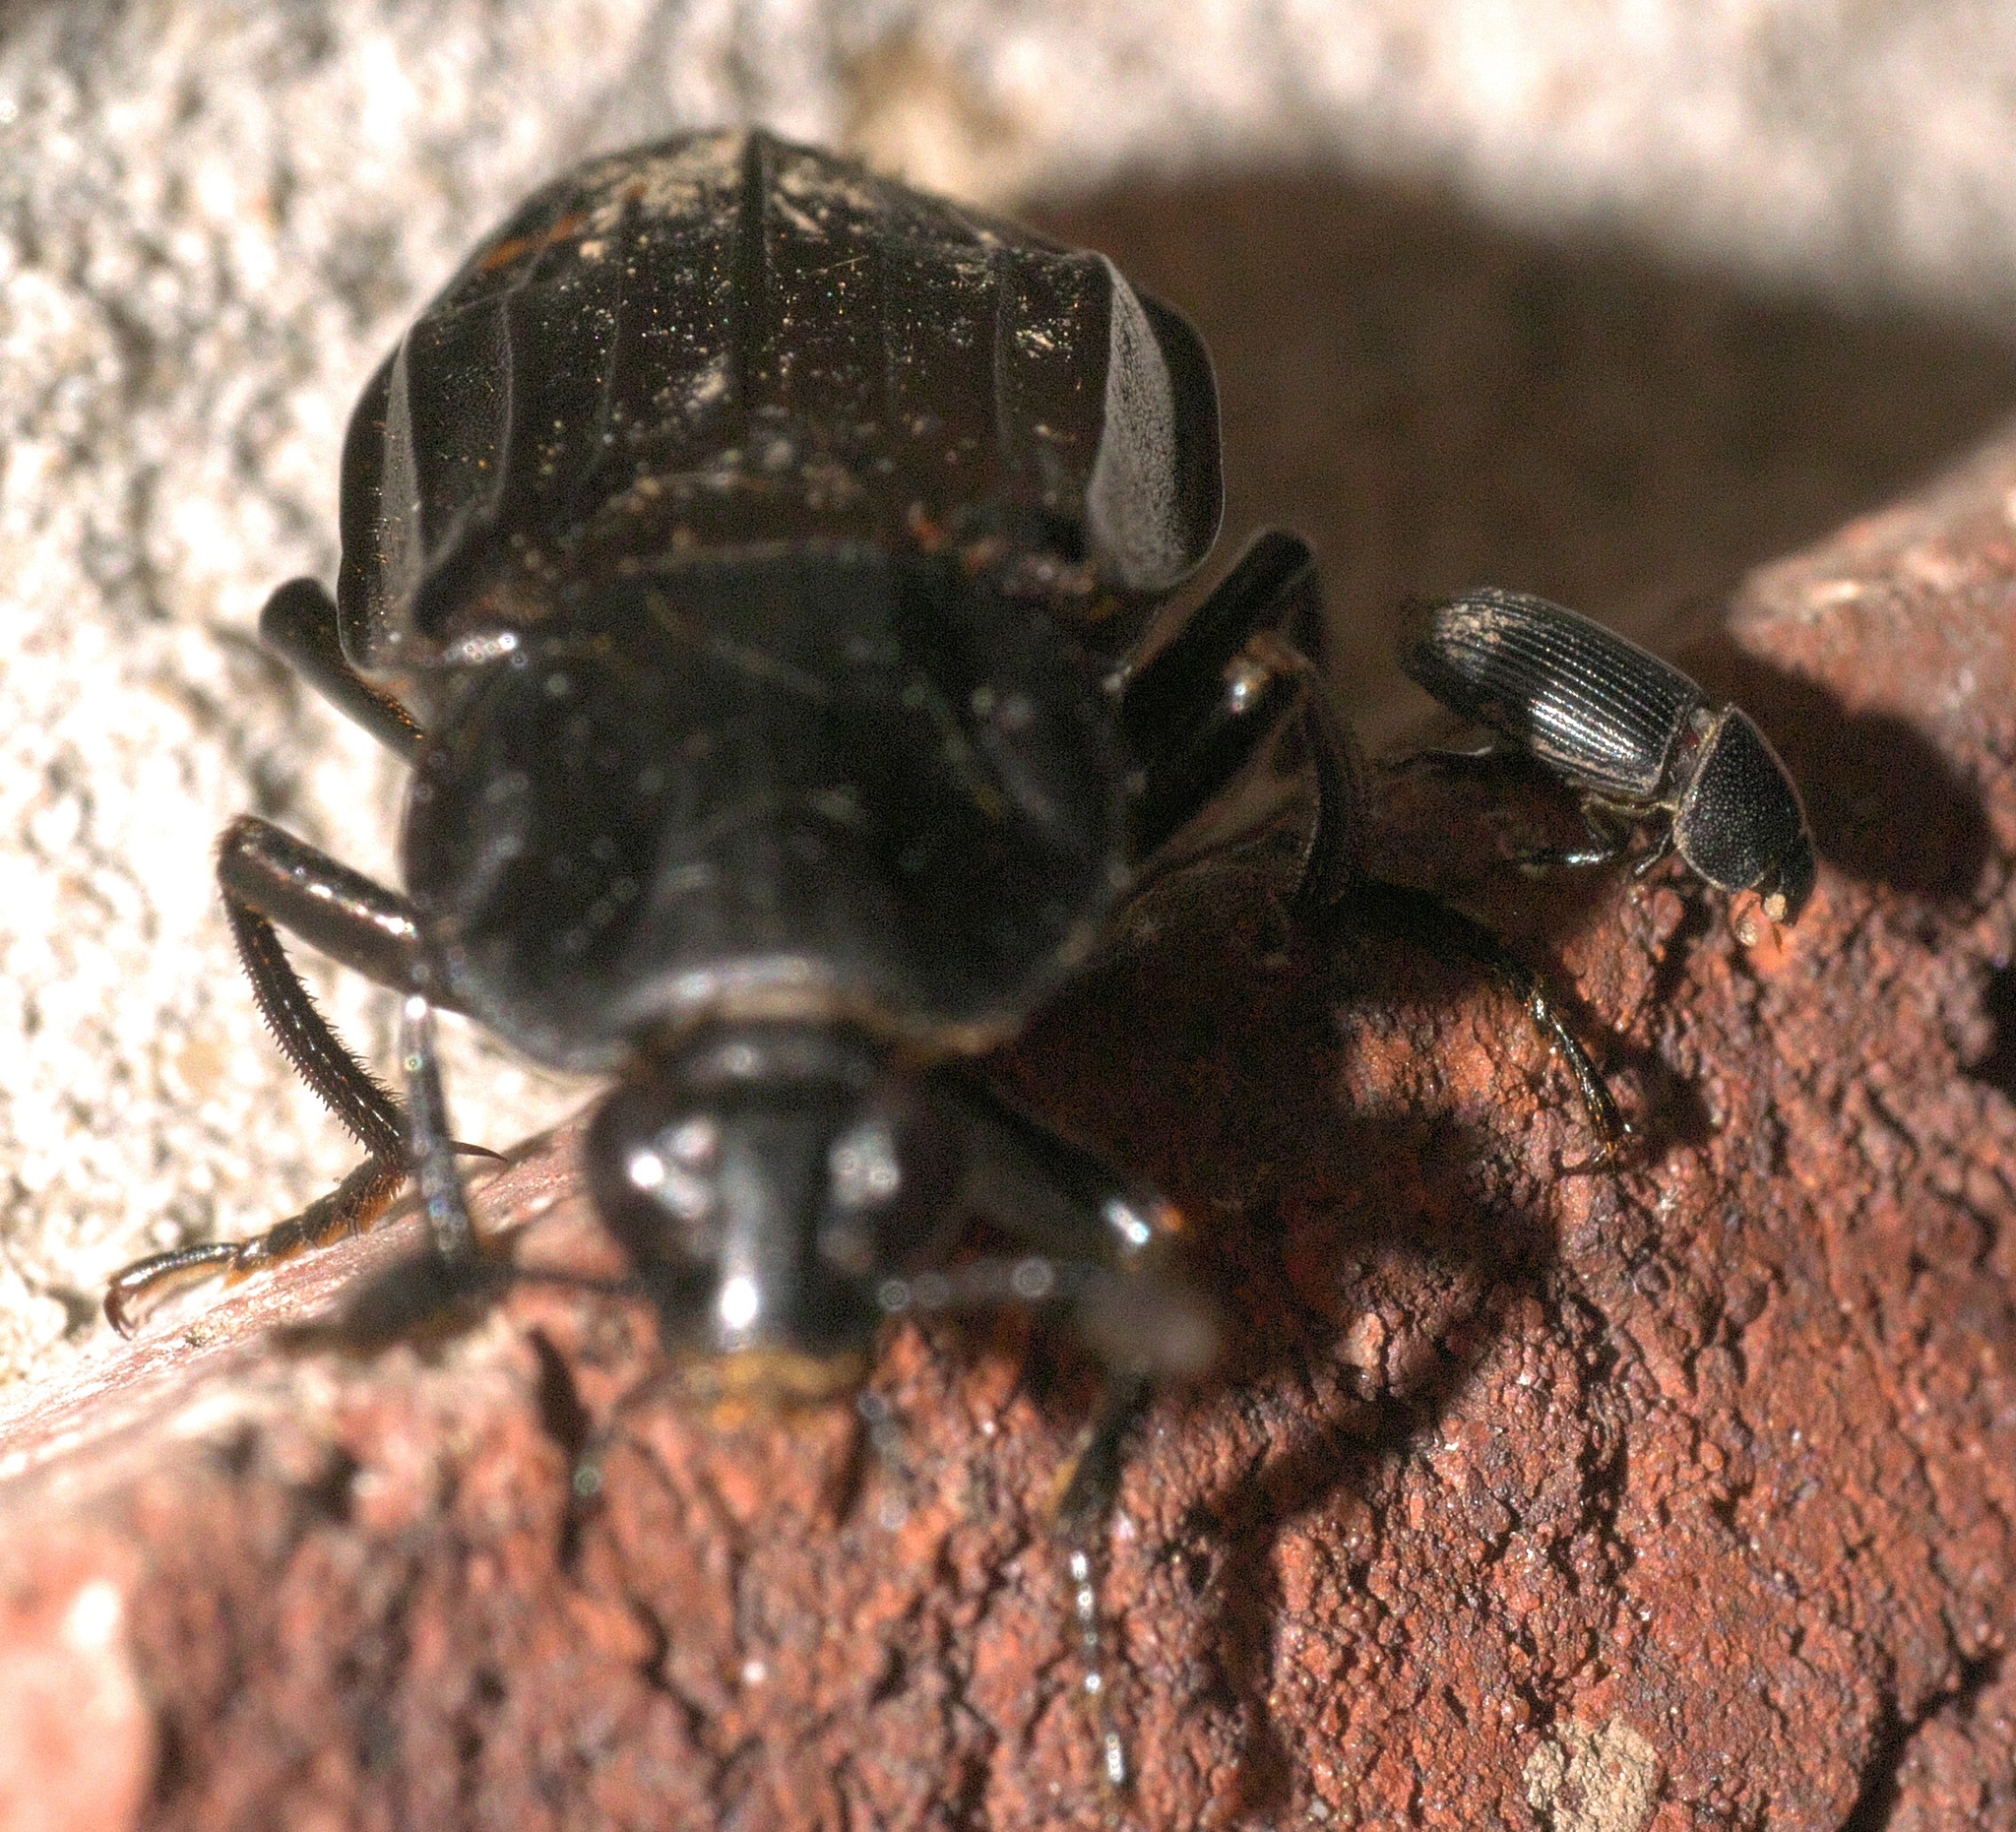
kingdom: Animalia
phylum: Arthropoda
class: Insecta
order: Coleoptera
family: Staphylinidae
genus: Necrodes
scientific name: Necrodes surinamensis
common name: Red-lined carrion beetle
